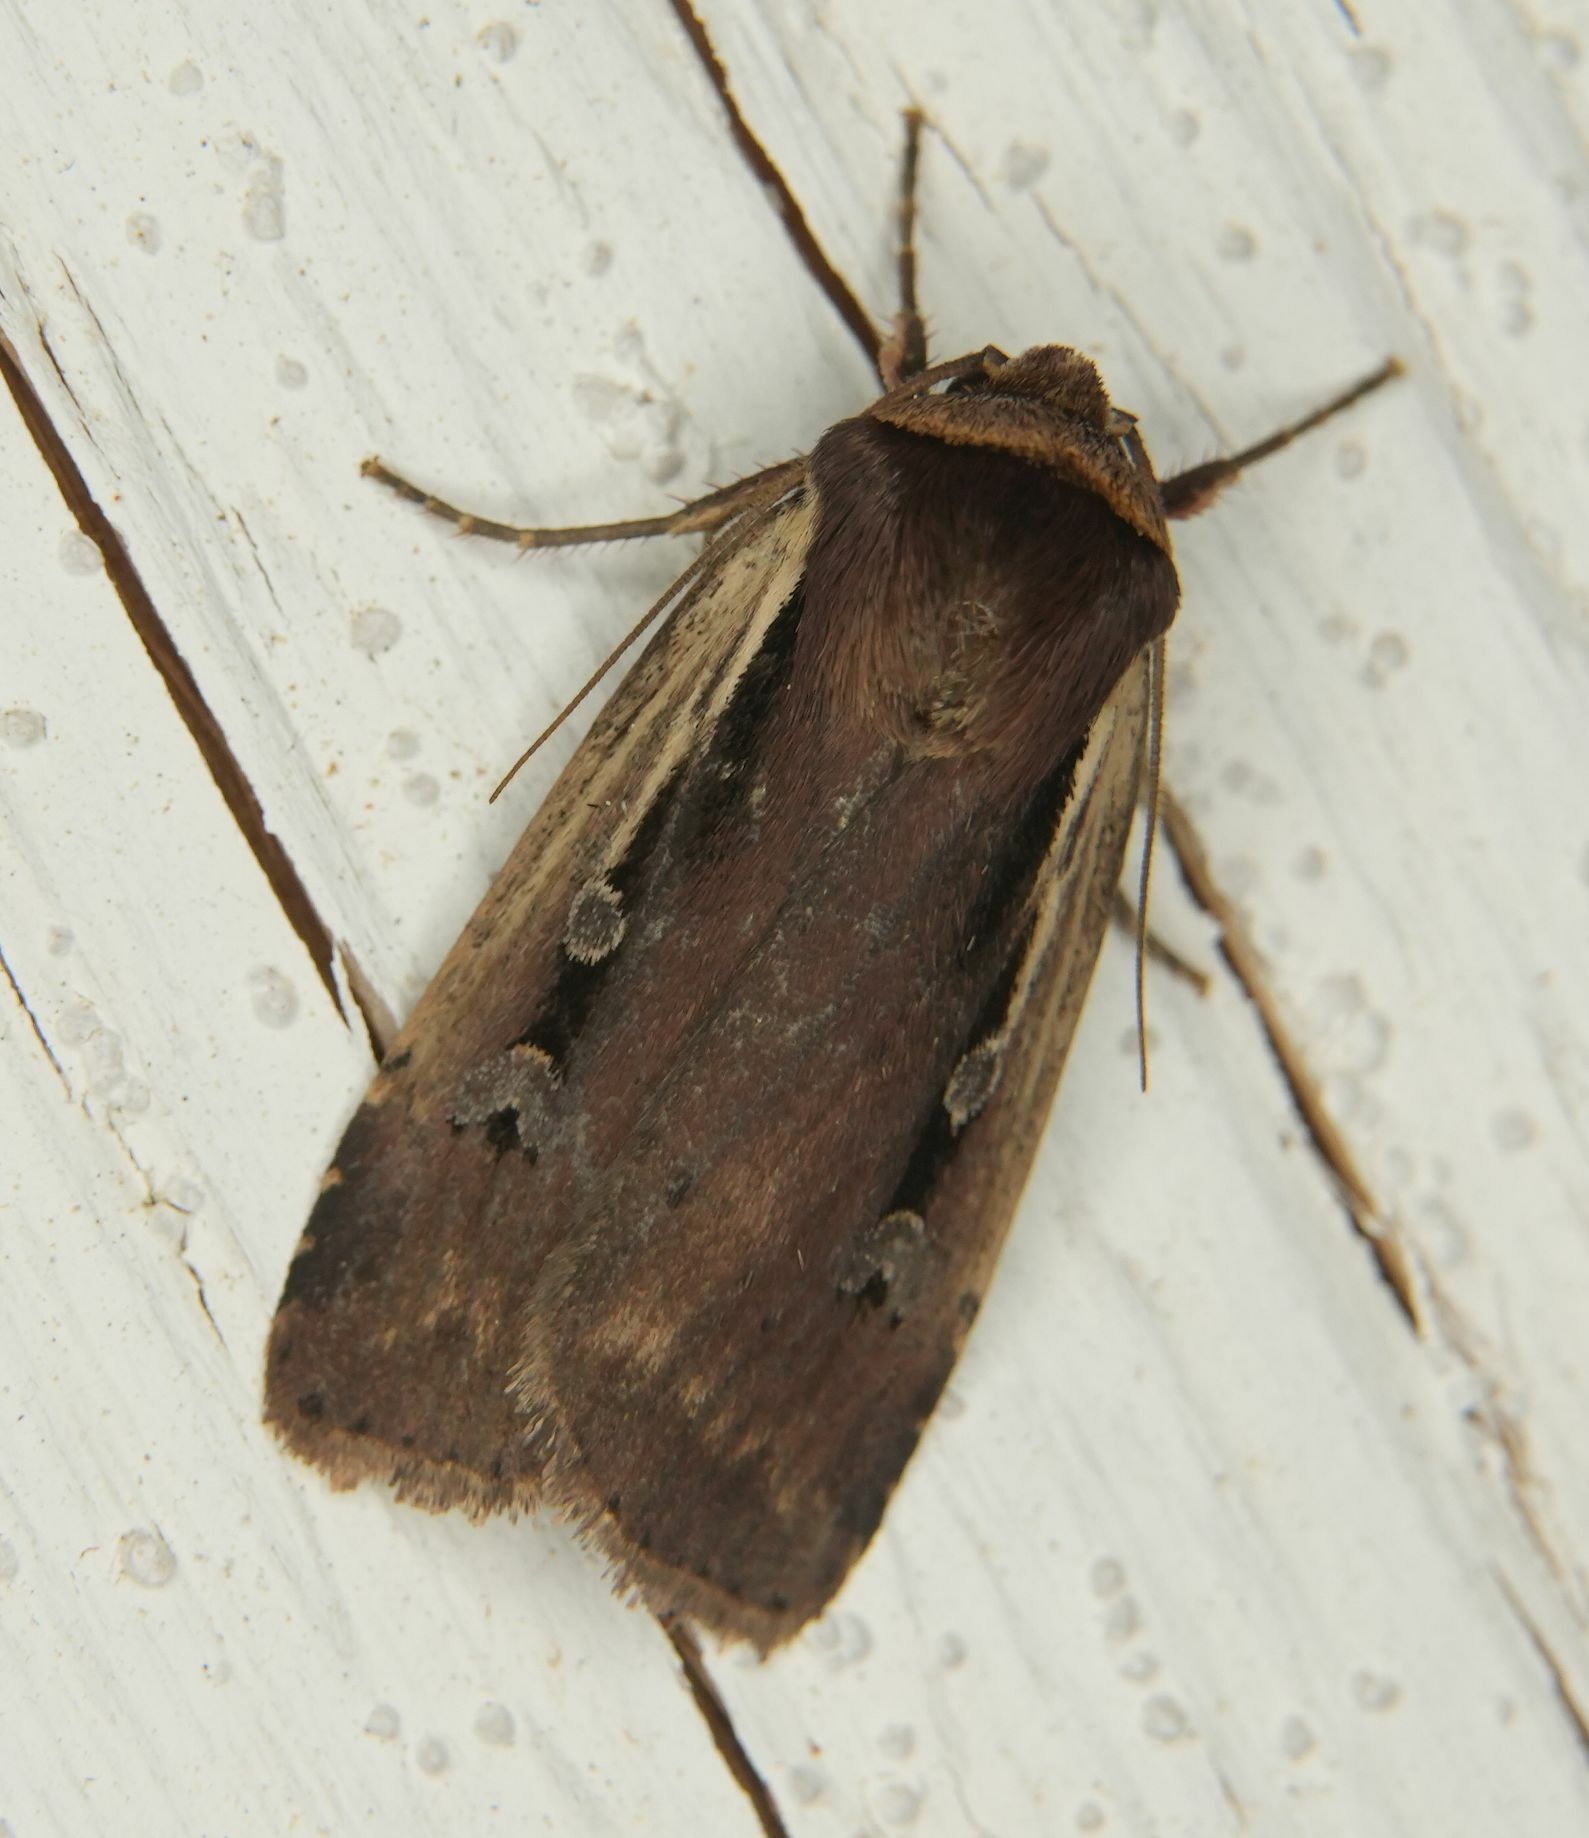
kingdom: Animalia
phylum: Arthropoda
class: Insecta
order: Lepidoptera
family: Noctuidae
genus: Ochropleura
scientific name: Ochropleura implecta
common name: Flame-shouldered dart
